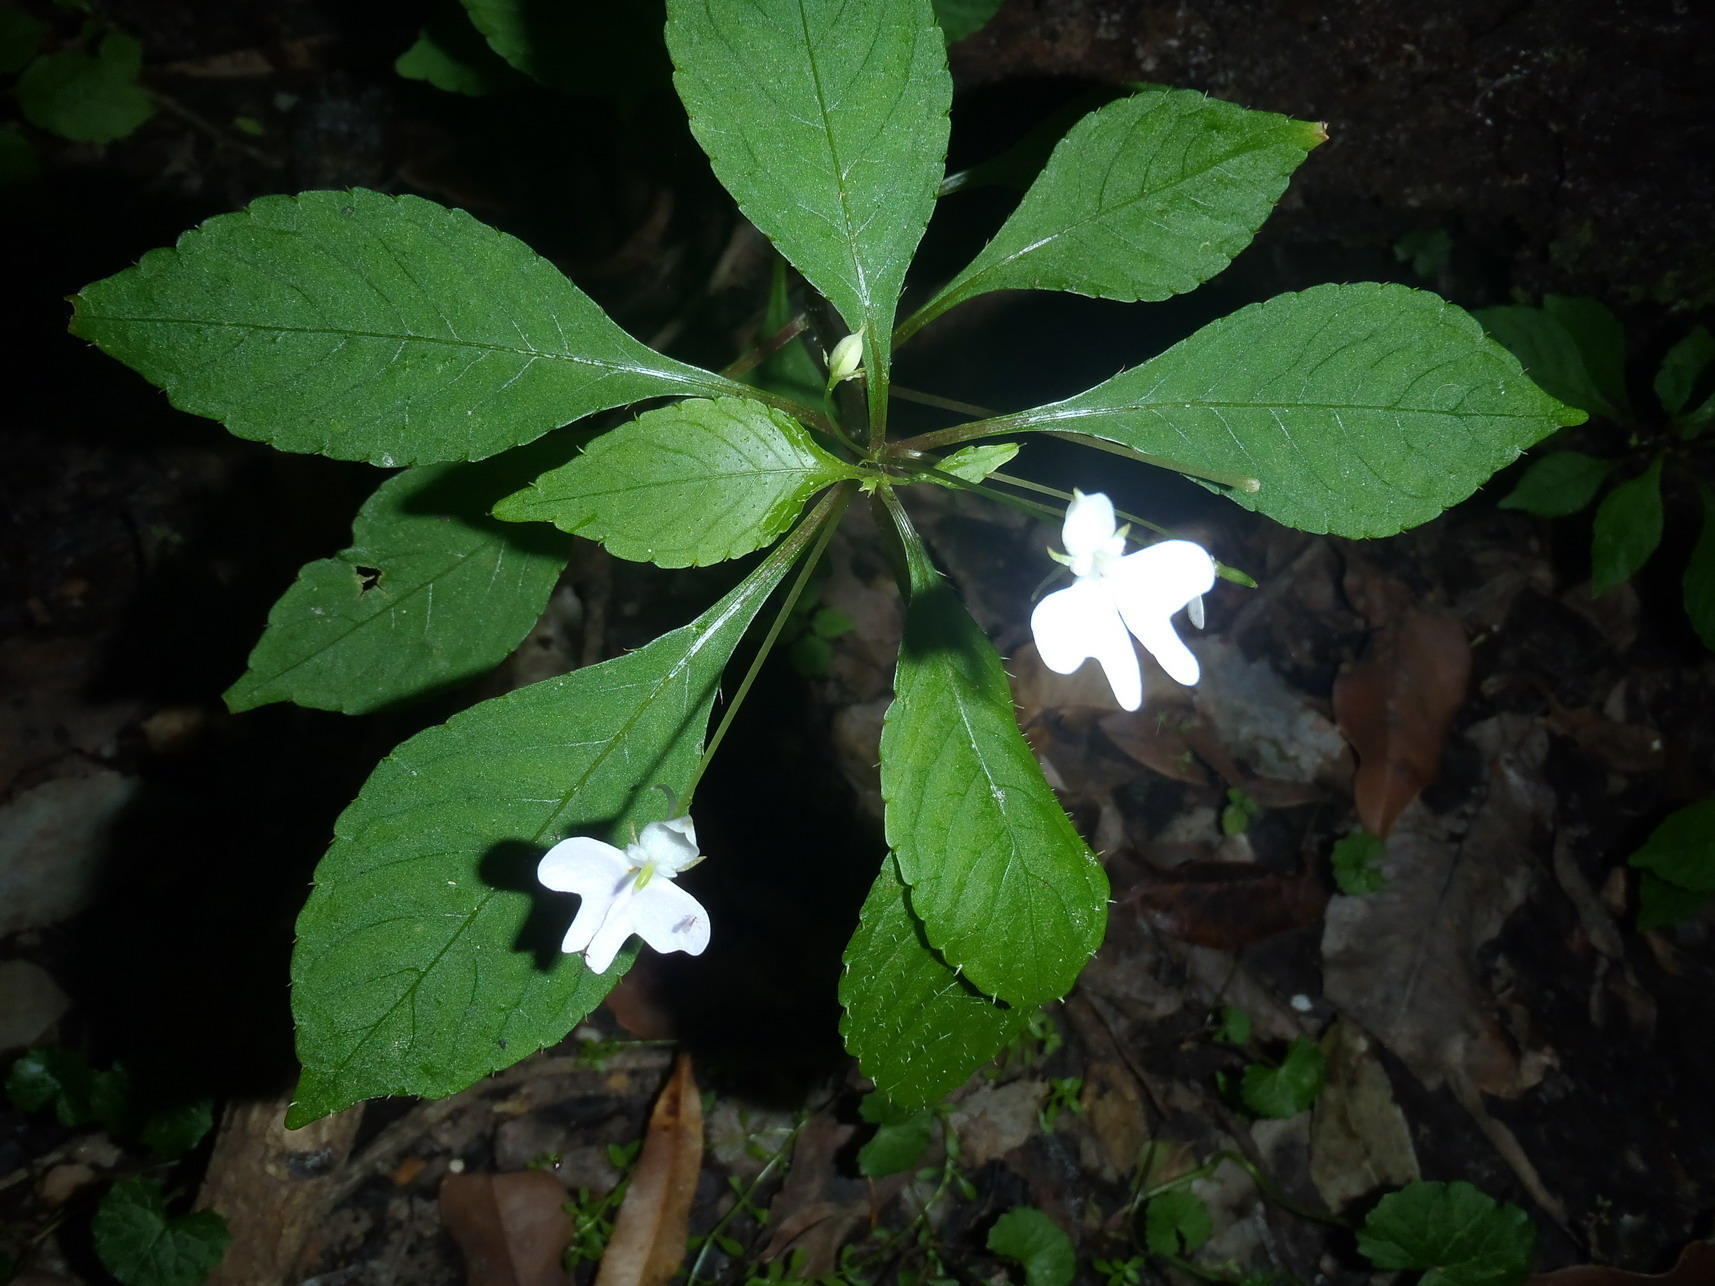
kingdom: Plantae
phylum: Tracheophyta
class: Magnoliopsida
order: Ericales
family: Balsaminaceae
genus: Impatiens
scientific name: Impatiens hochstetteri
